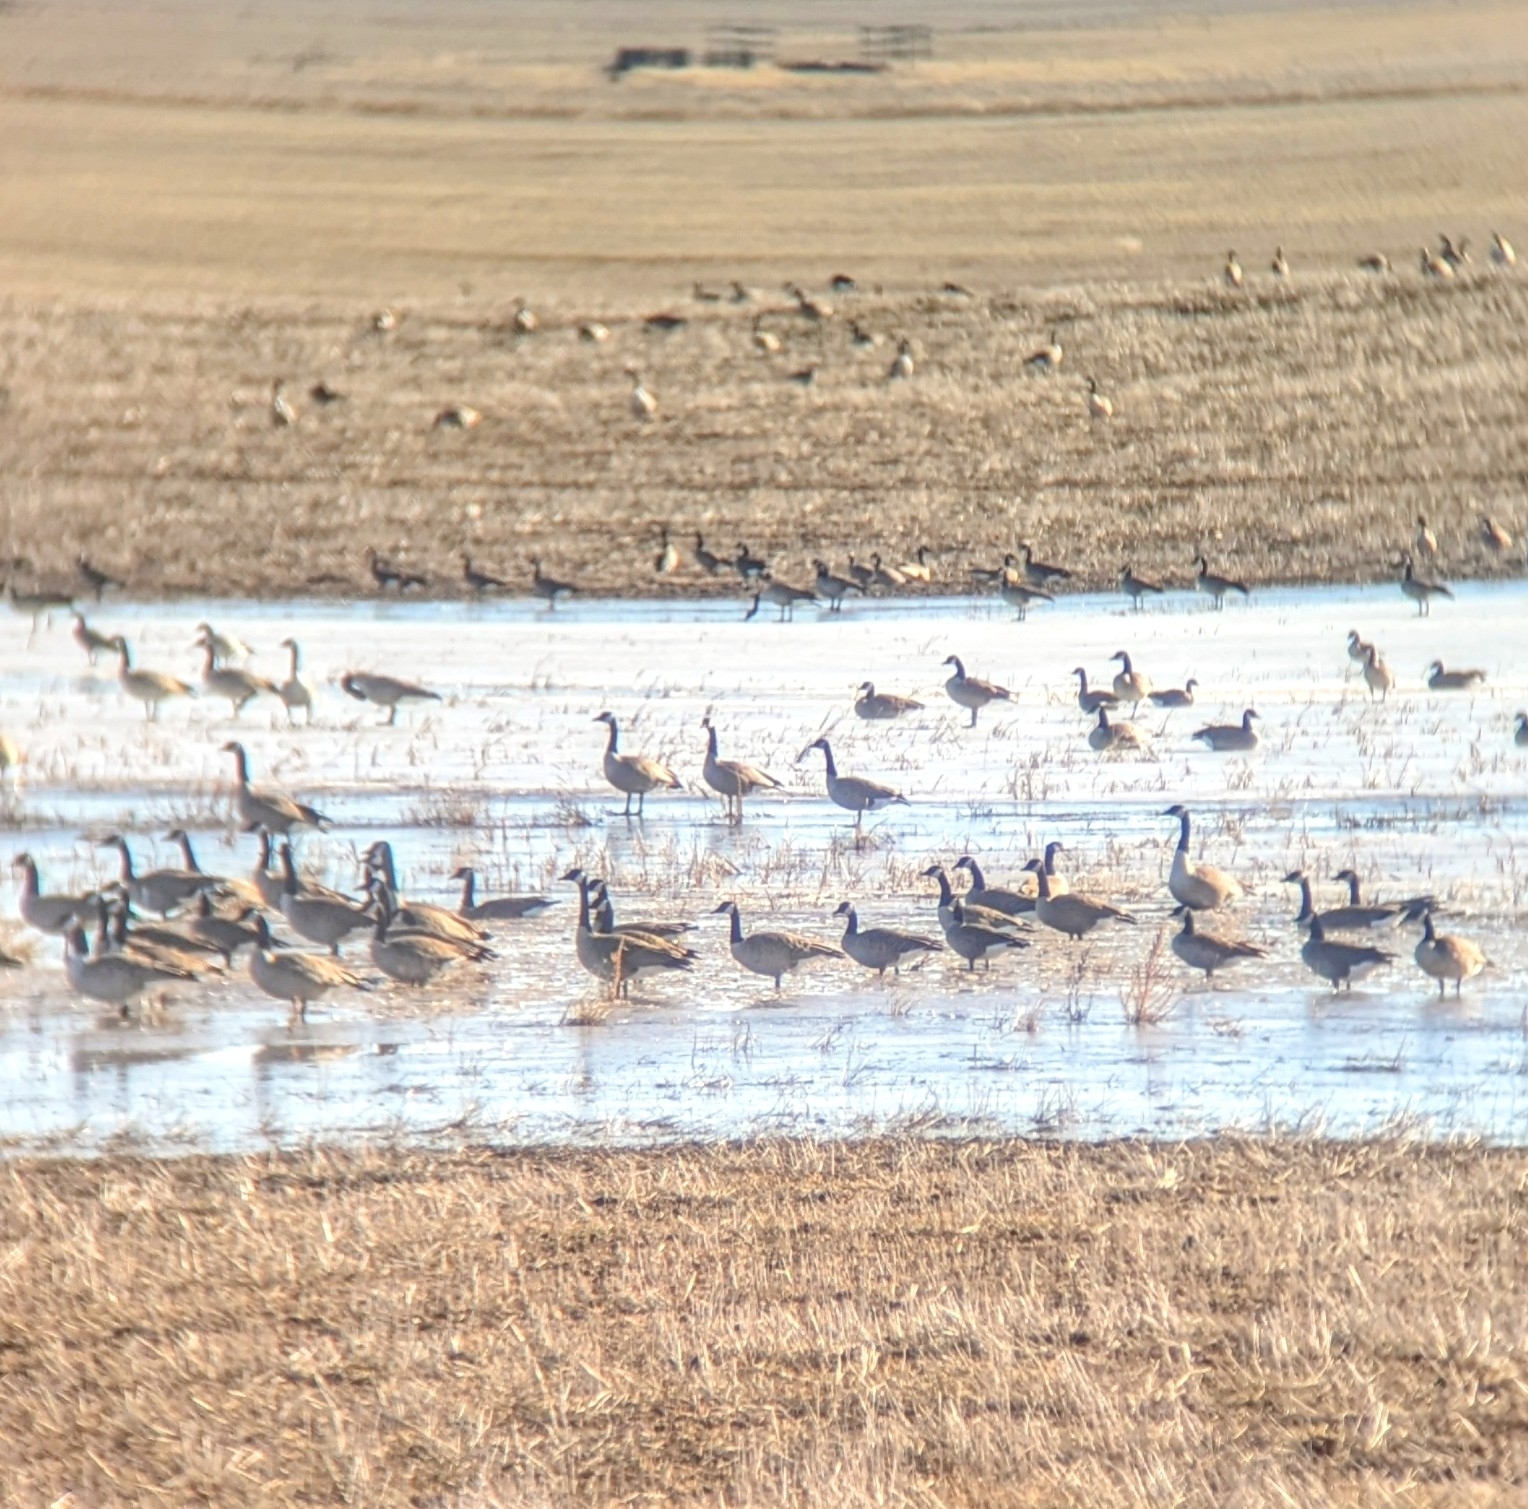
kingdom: Animalia
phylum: Chordata
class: Aves
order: Anseriformes
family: Anatidae
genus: Branta
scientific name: Branta canadensis
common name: Canada goose
